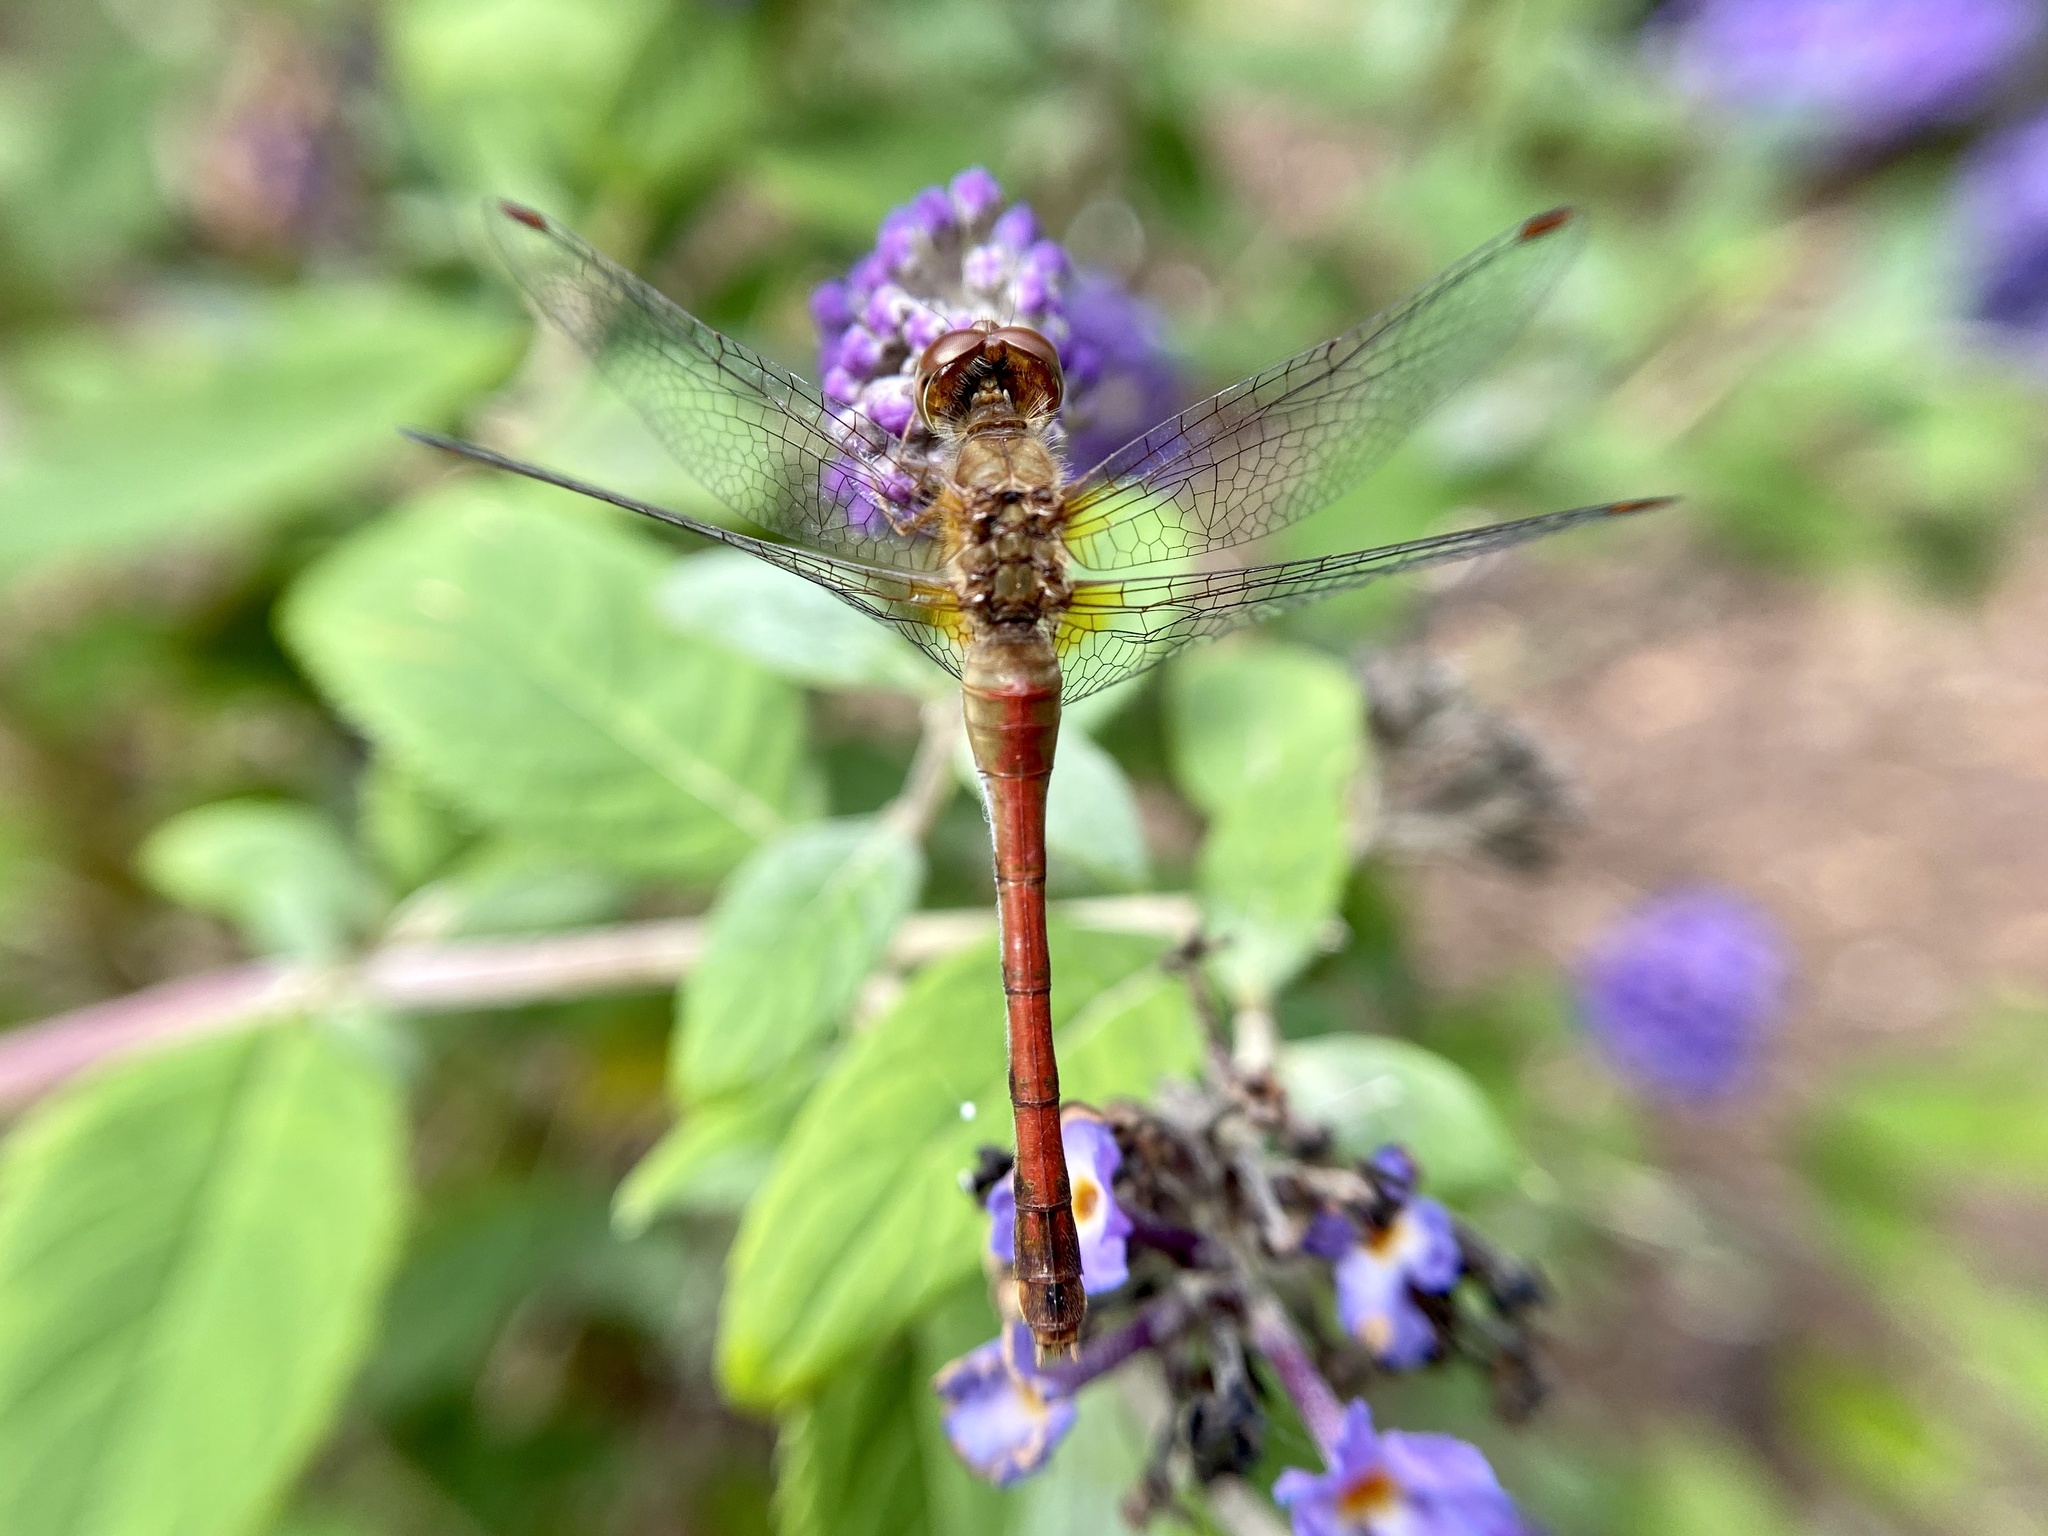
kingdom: Animalia
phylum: Arthropoda
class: Insecta
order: Odonata
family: Libellulidae
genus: Sympetrum
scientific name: Sympetrum vicinum
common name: Autumn meadowhawk
